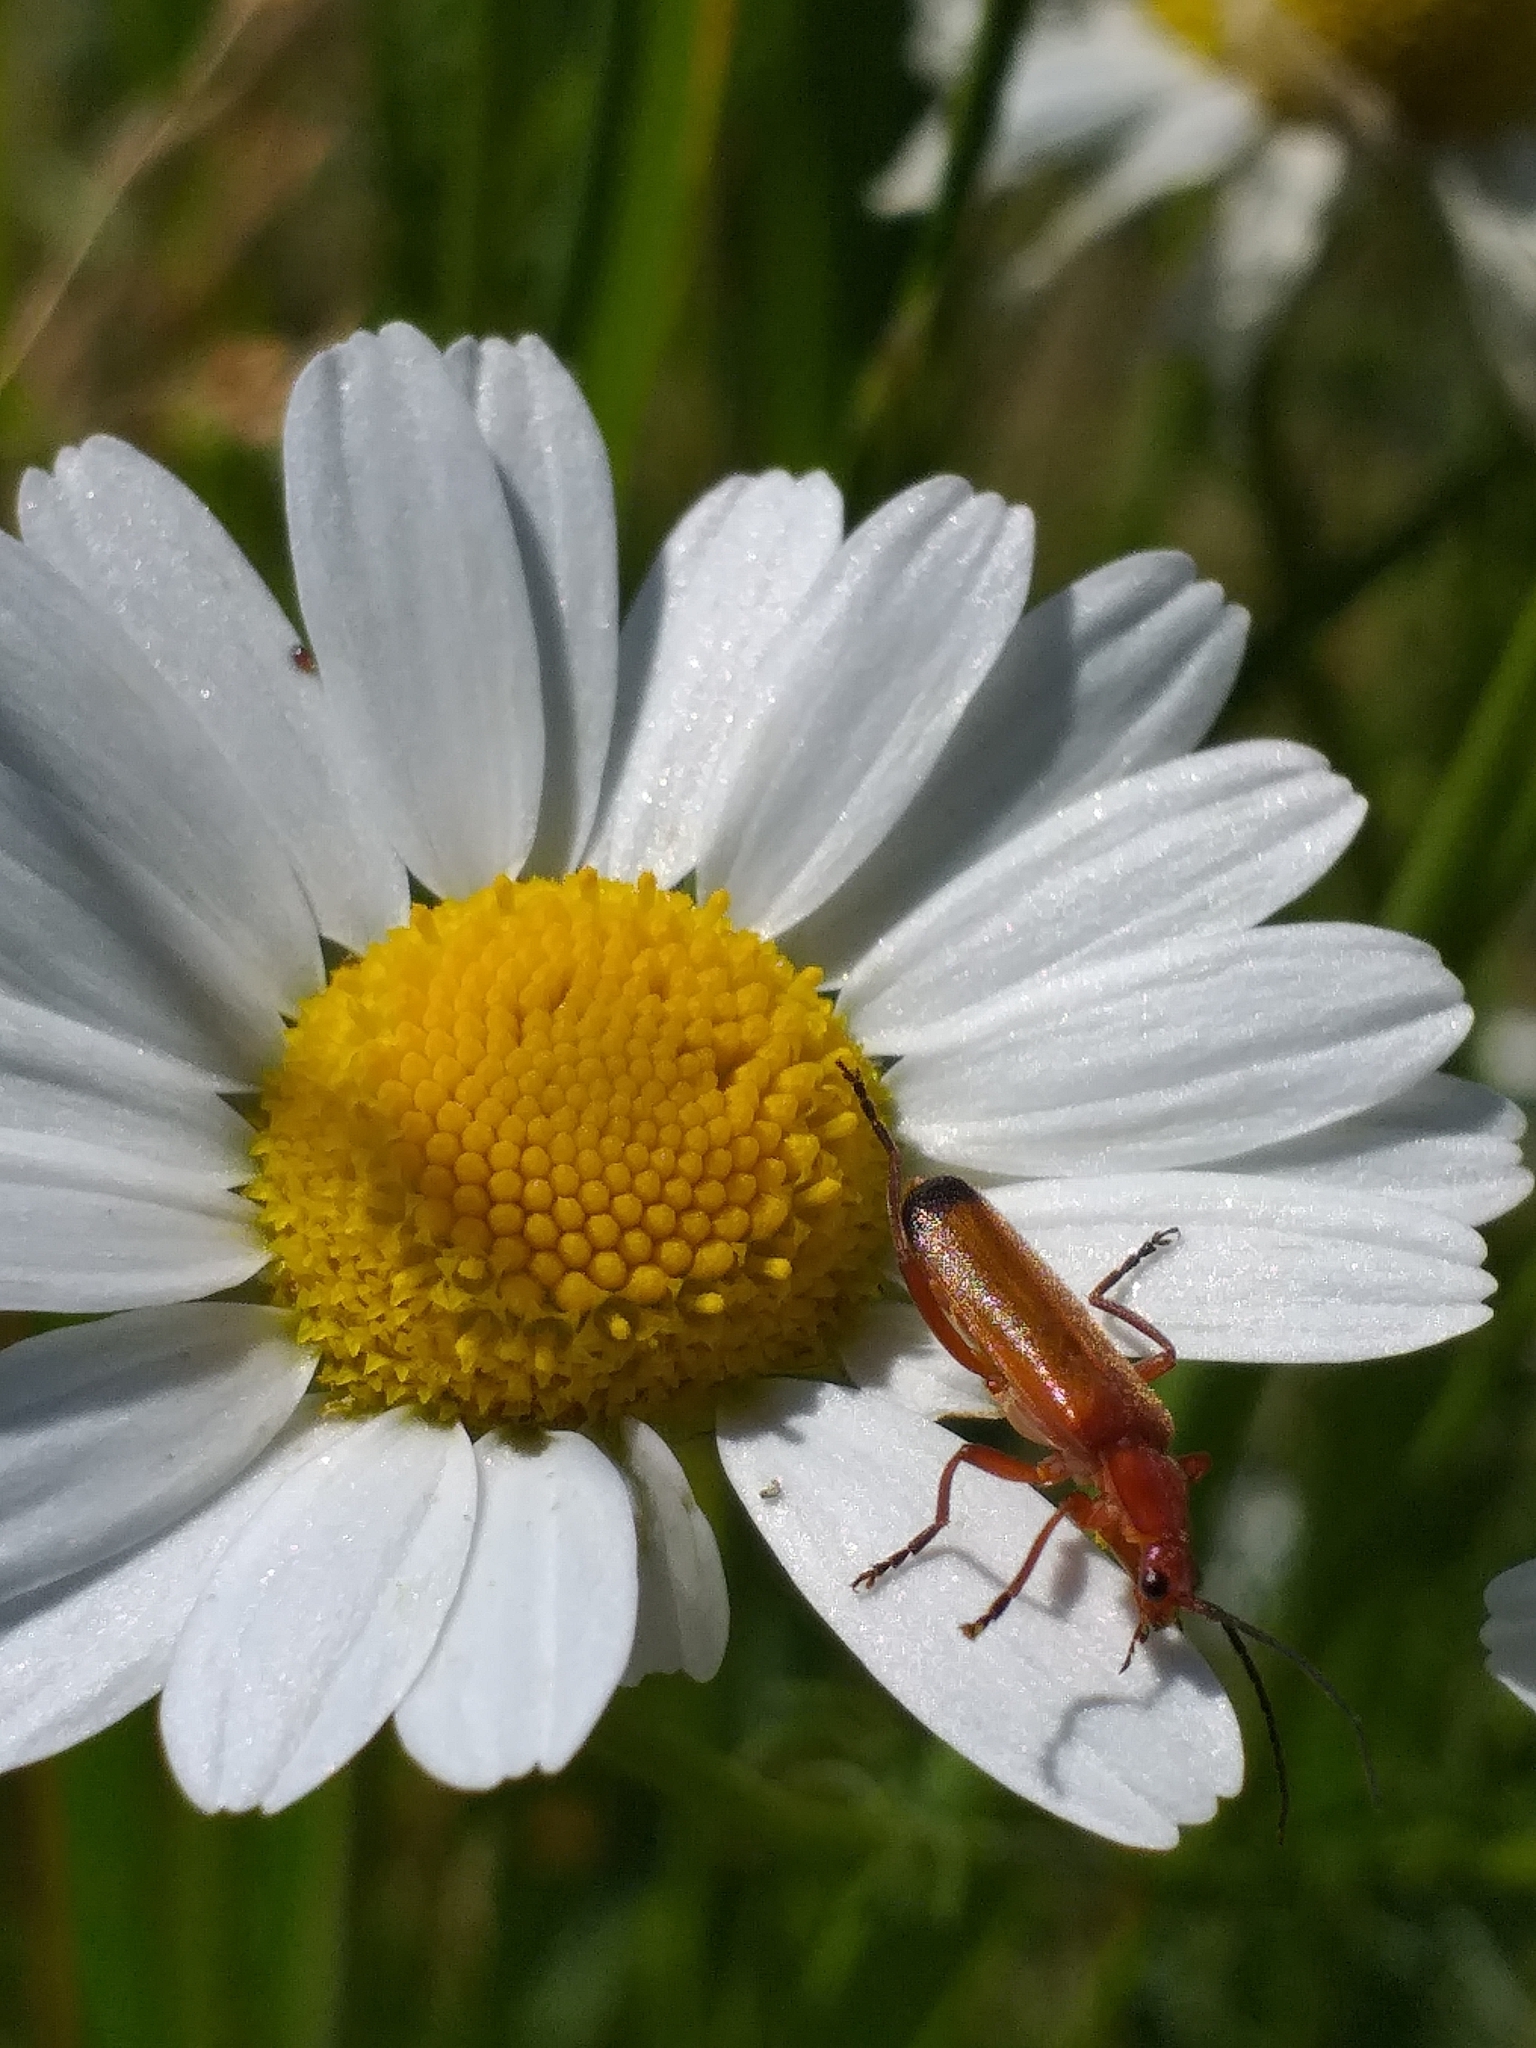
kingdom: Animalia
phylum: Arthropoda
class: Insecta
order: Coleoptera
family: Cantharidae
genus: Rhagonycha
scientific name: Rhagonycha fulva
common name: Common red soldier beetle
